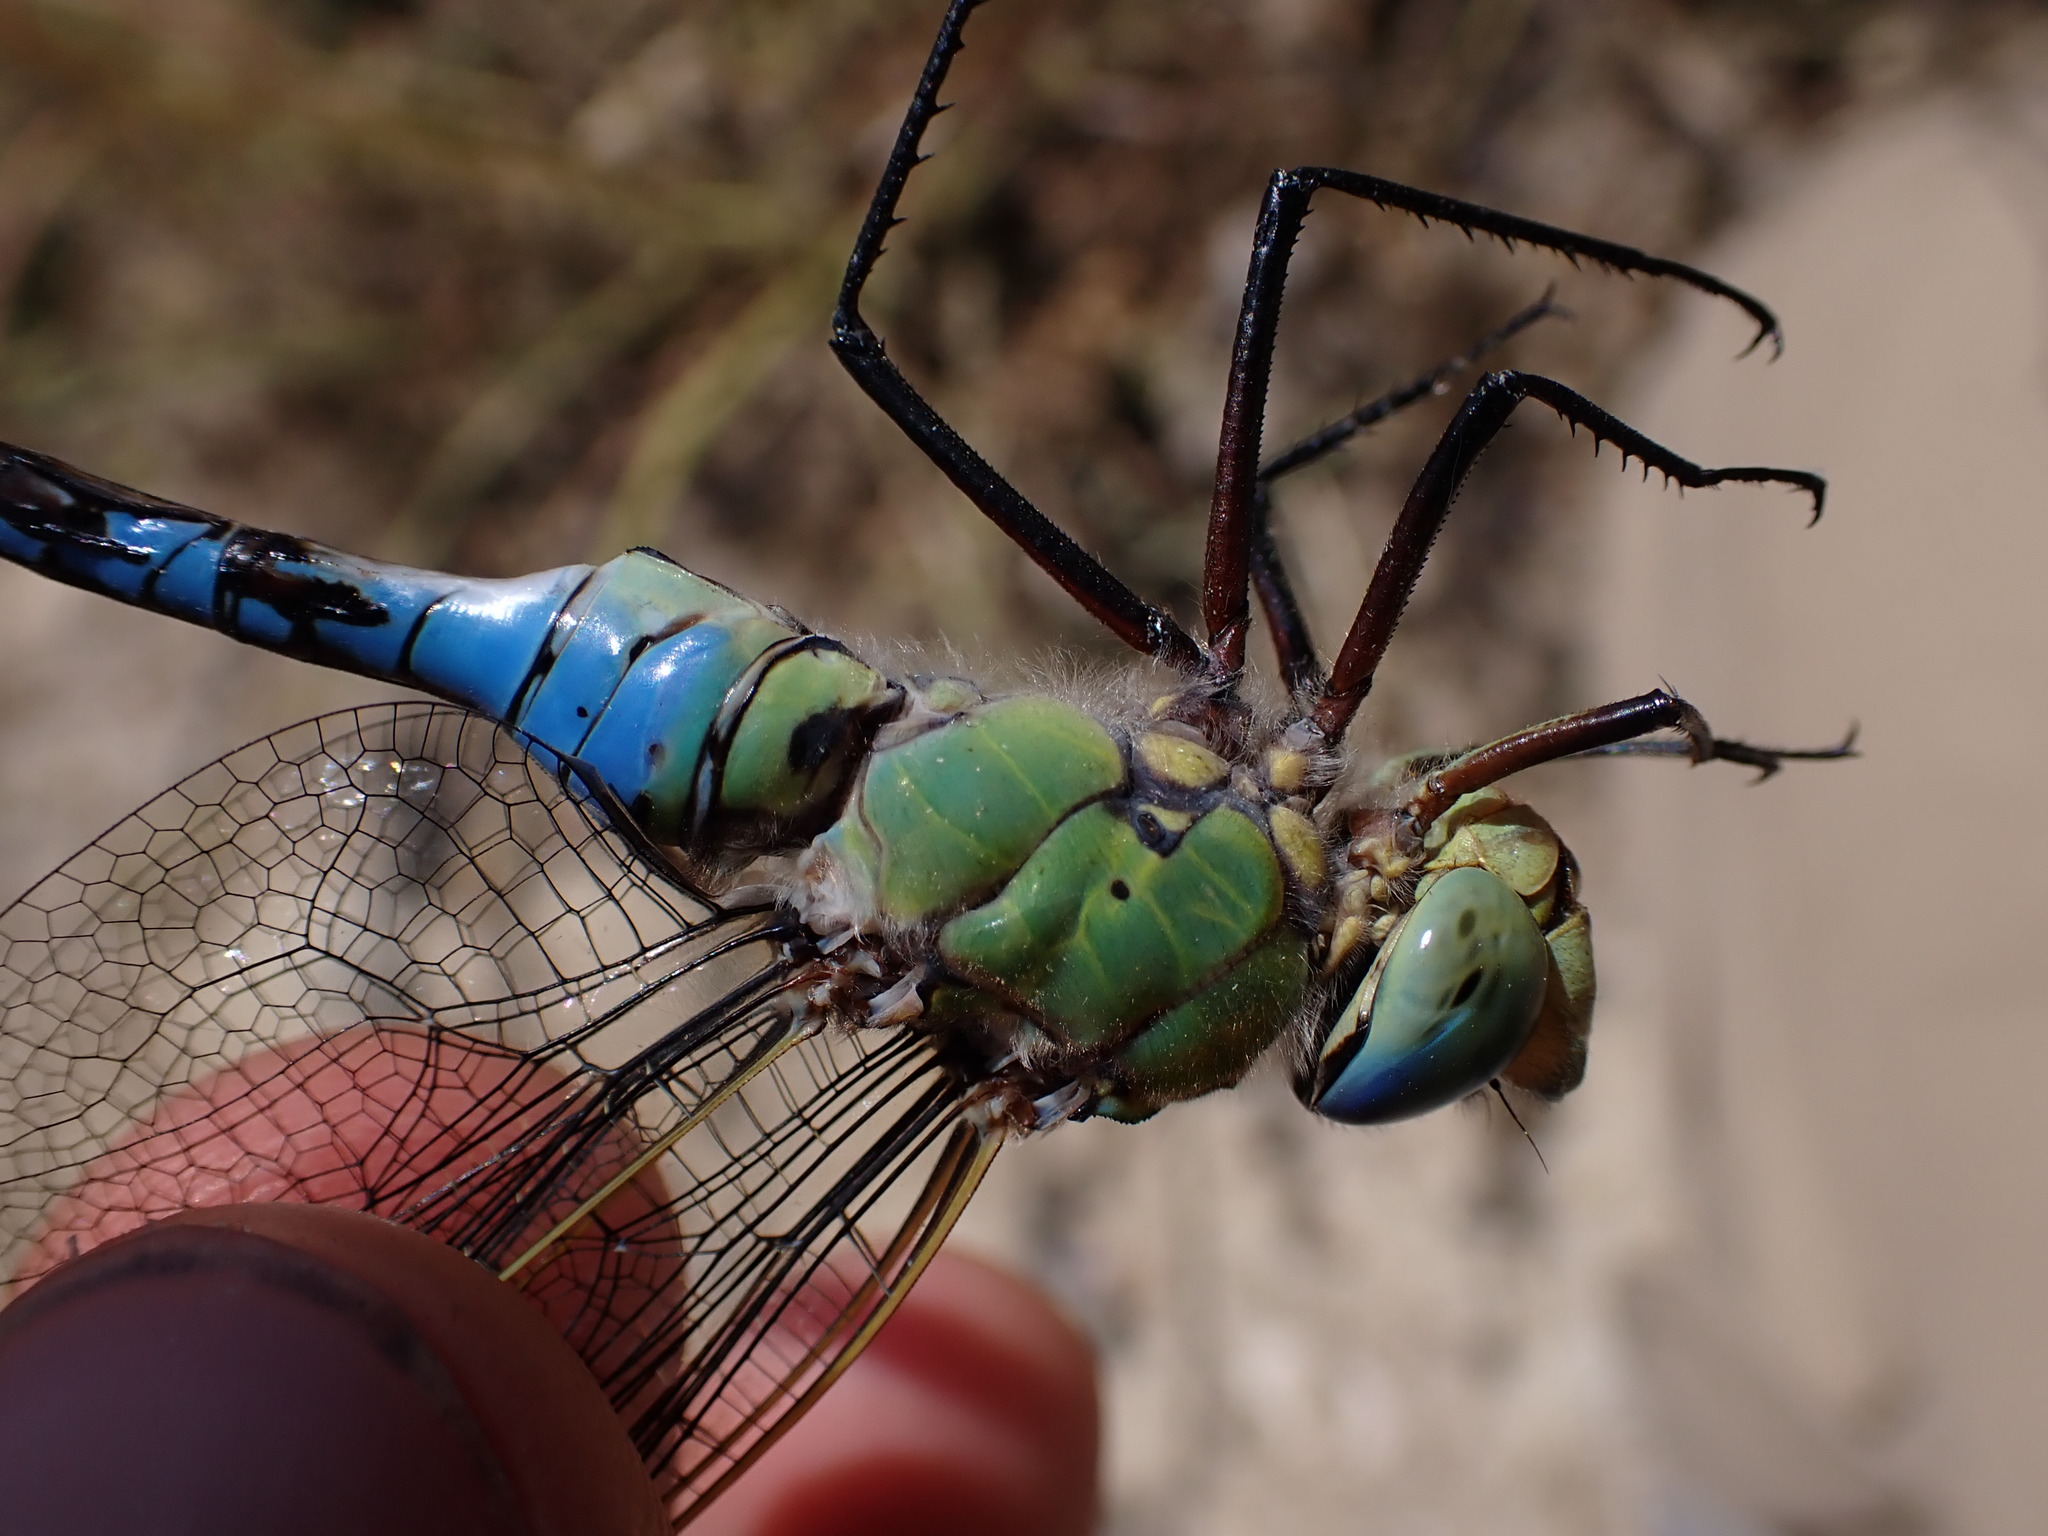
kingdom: Animalia
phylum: Arthropoda
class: Insecta
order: Odonata
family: Aeshnidae
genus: Anax
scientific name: Anax imperator
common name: Emperor dragonfly
